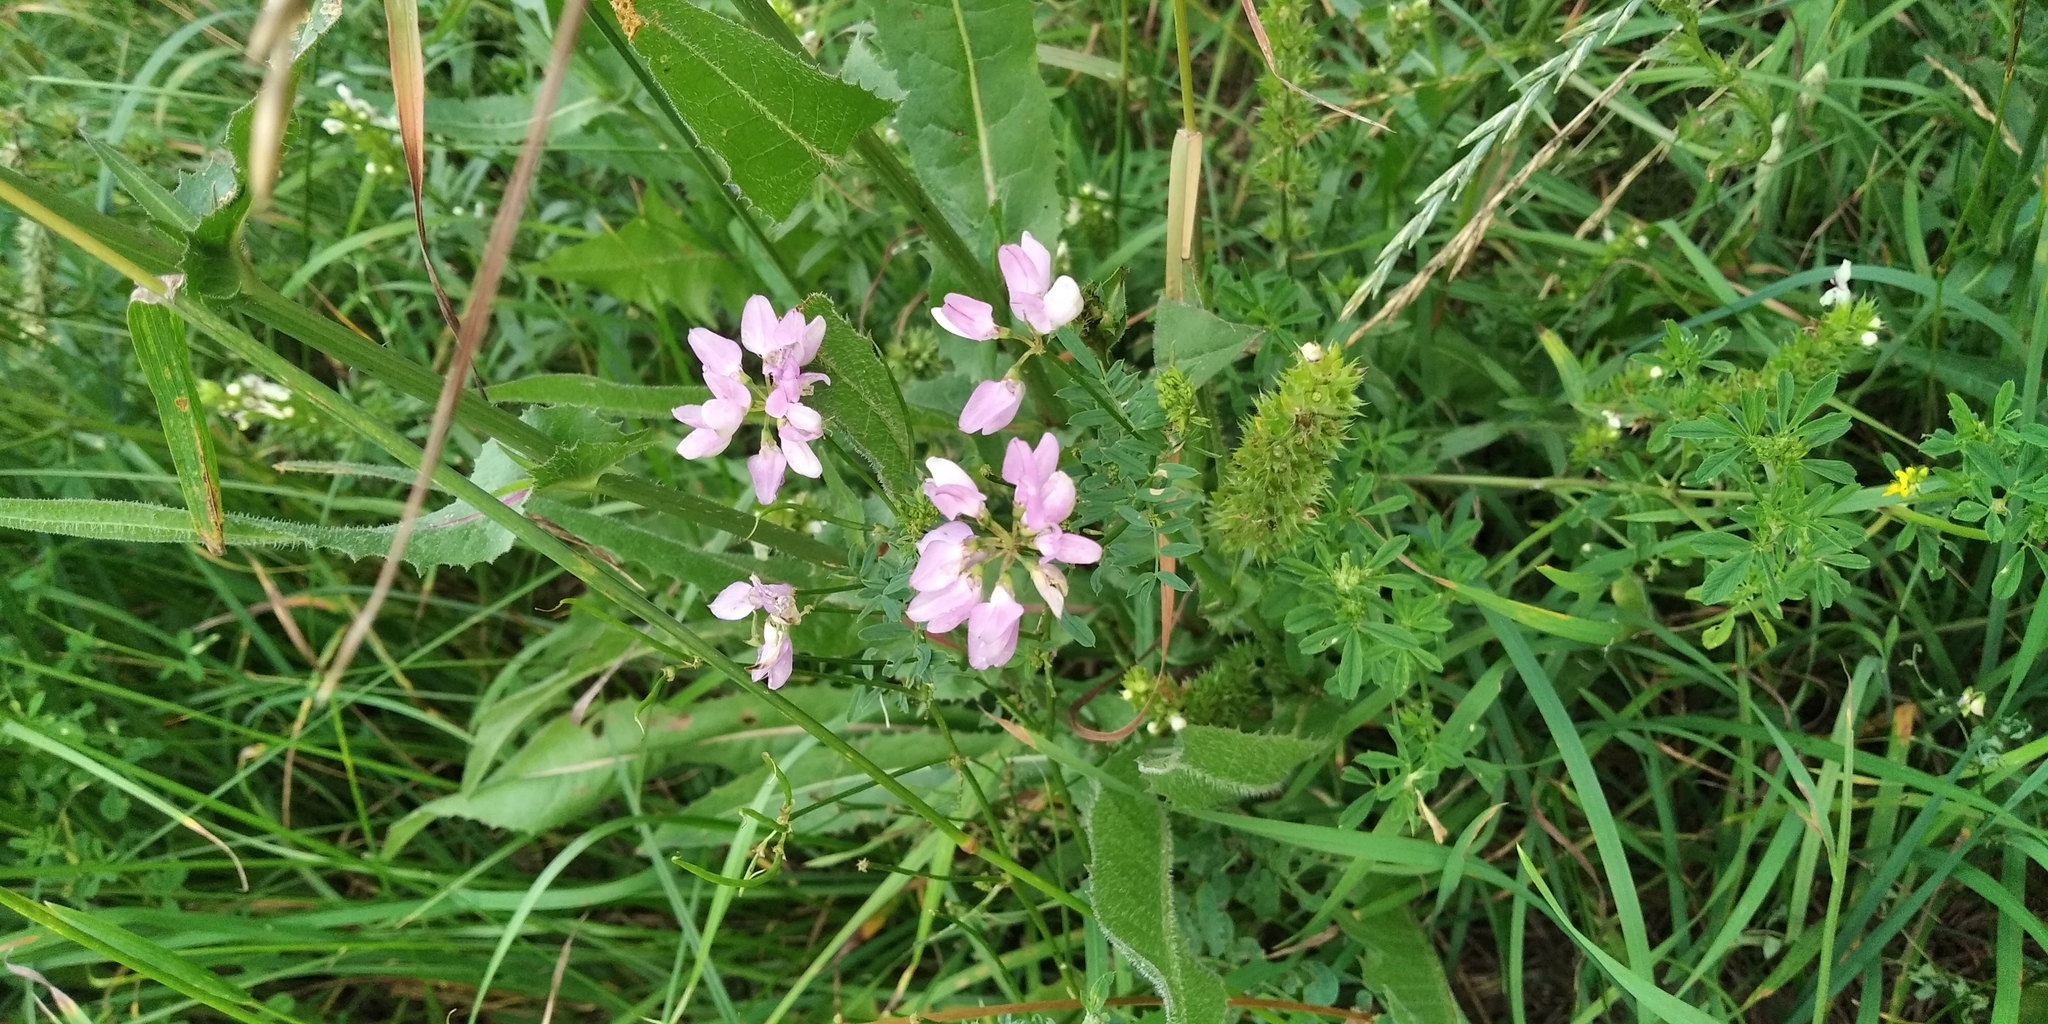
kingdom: Plantae
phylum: Tracheophyta
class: Magnoliopsida
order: Fabales
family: Fabaceae
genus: Coronilla
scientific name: Coronilla varia
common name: Crownvetch
